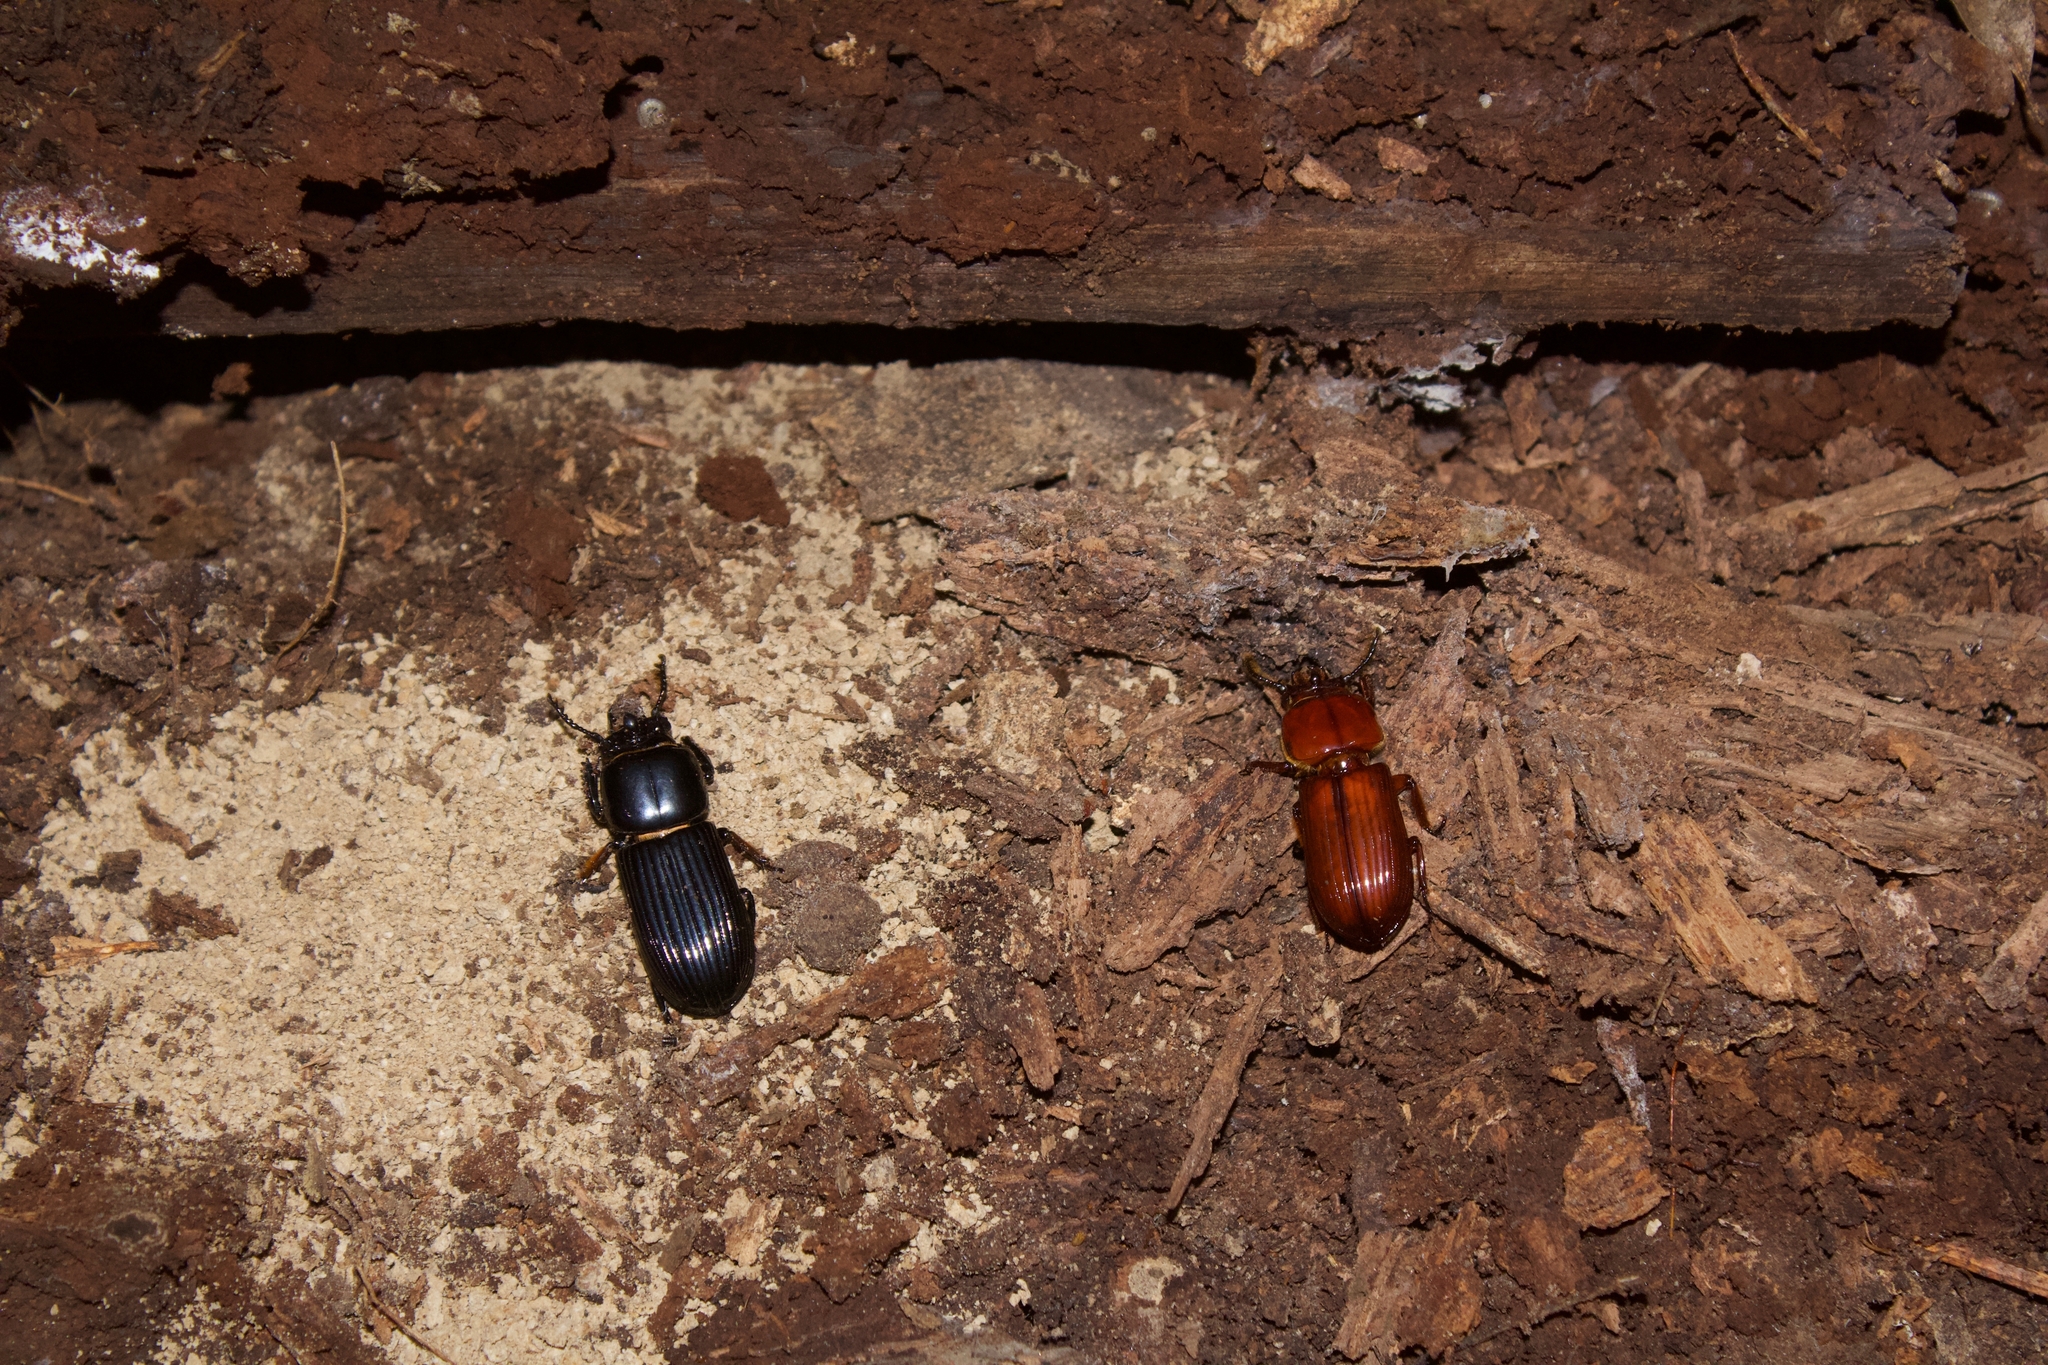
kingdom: Animalia
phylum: Arthropoda
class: Insecta
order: Coleoptera
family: Passalidae
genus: Odontotaenius
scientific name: Odontotaenius disjunctus
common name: Patent leather beetle
